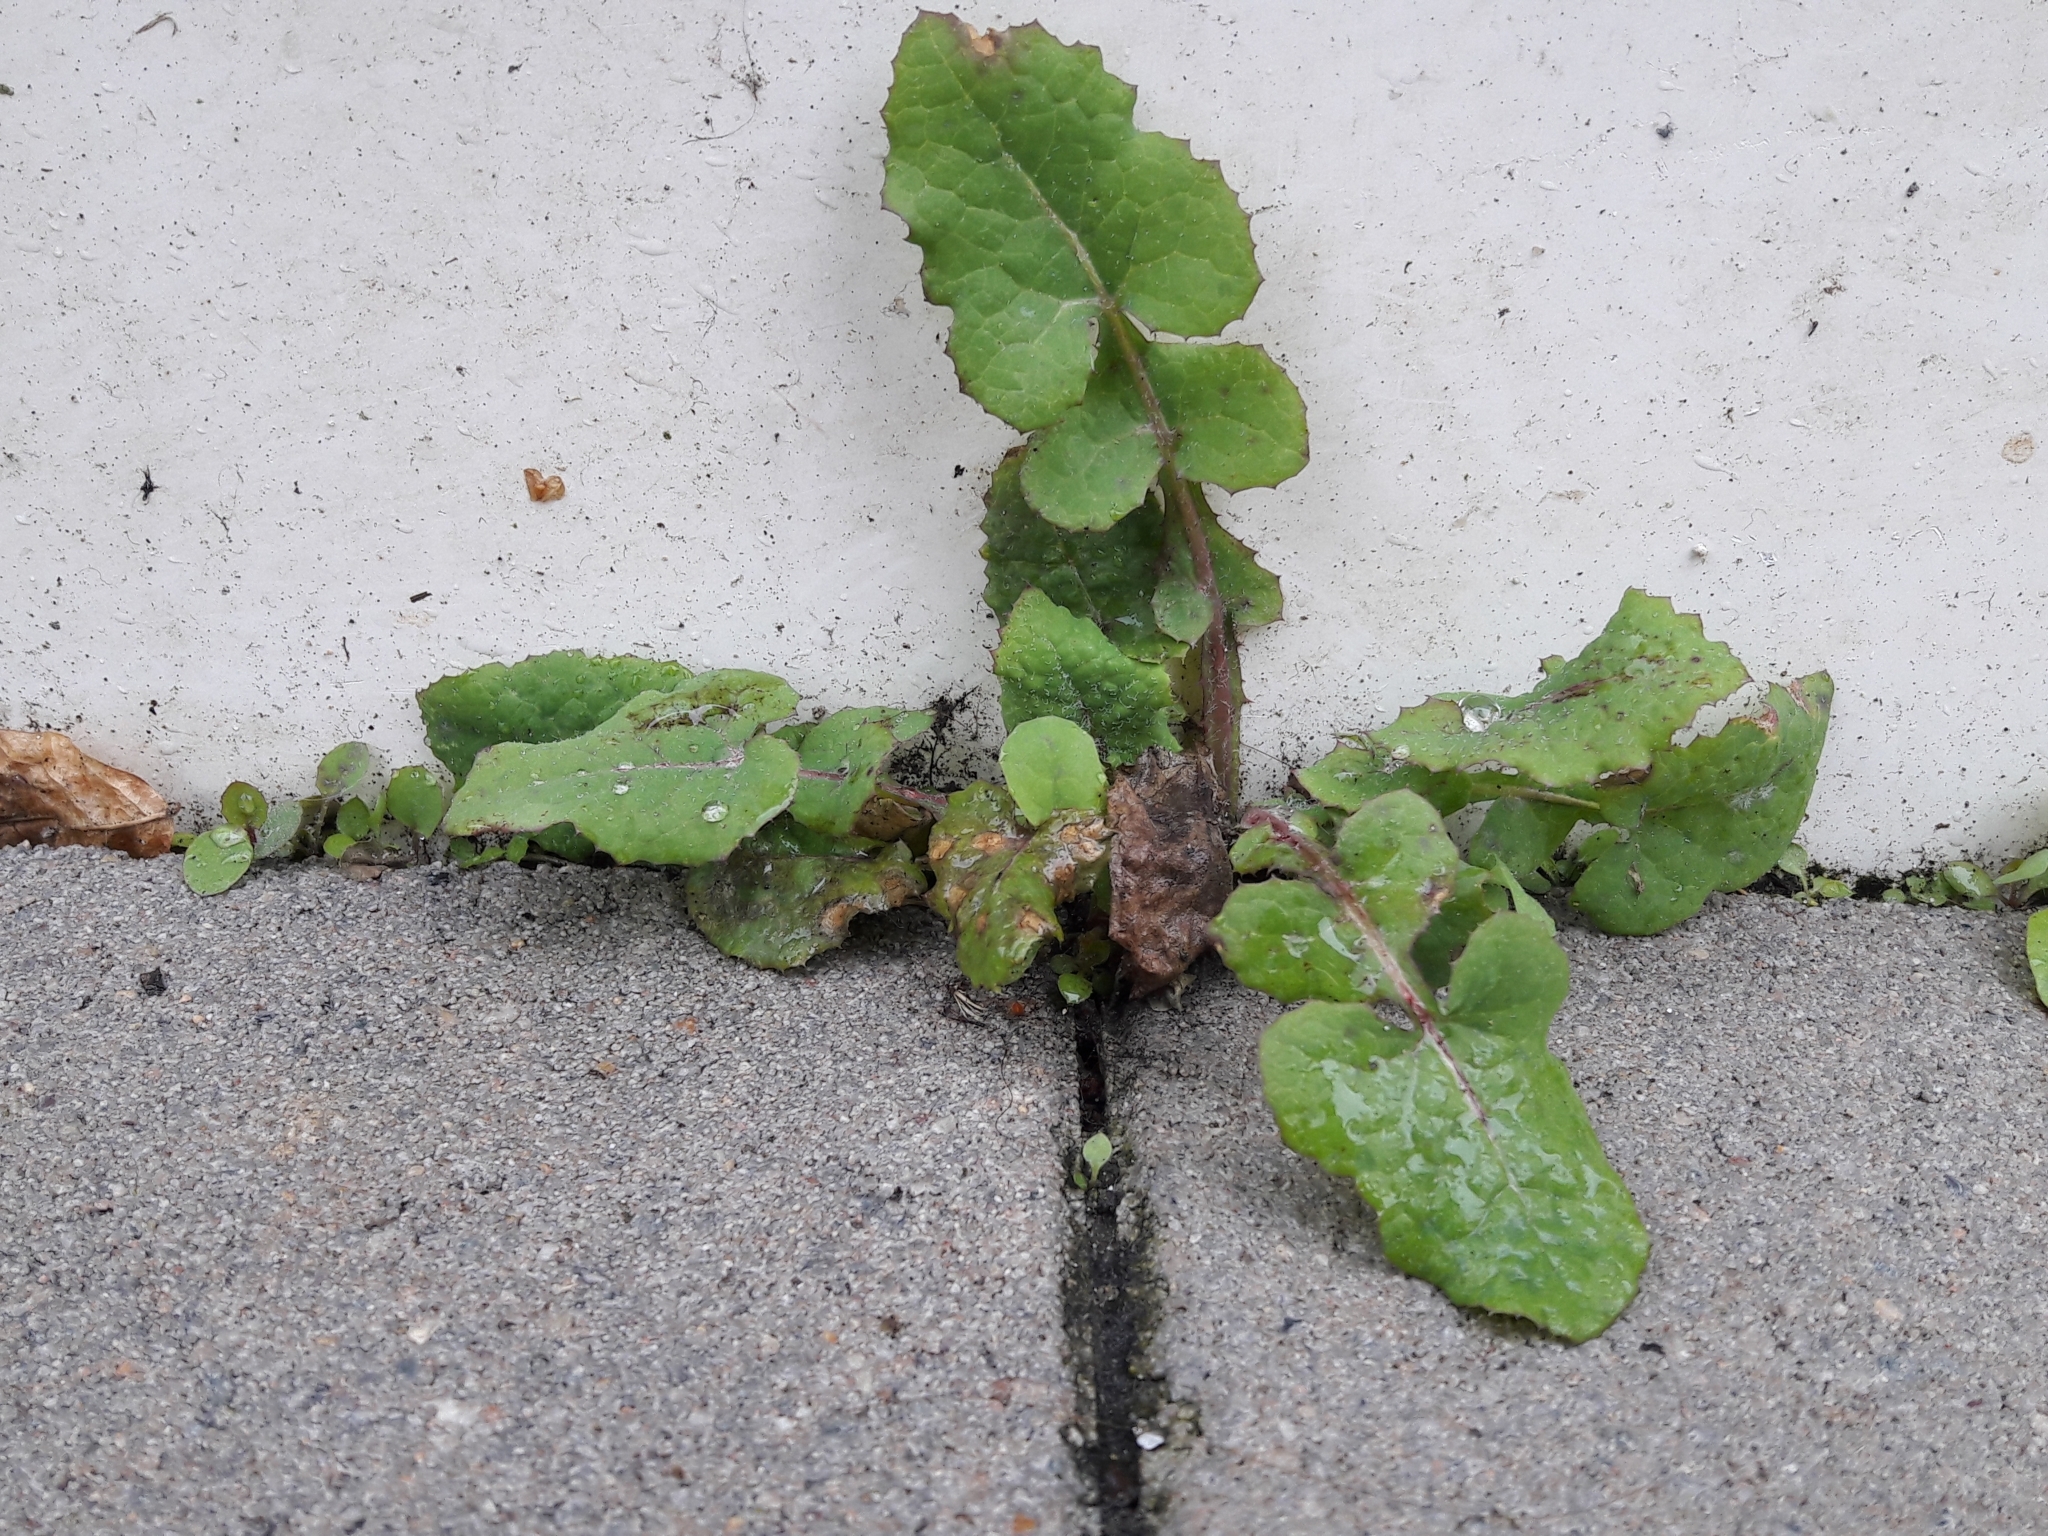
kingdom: Plantae
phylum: Tracheophyta
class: Magnoliopsida
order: Asterales
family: Asteraceae
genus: Sonchus
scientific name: Sonchus oleraceus
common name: Common sowthistle
